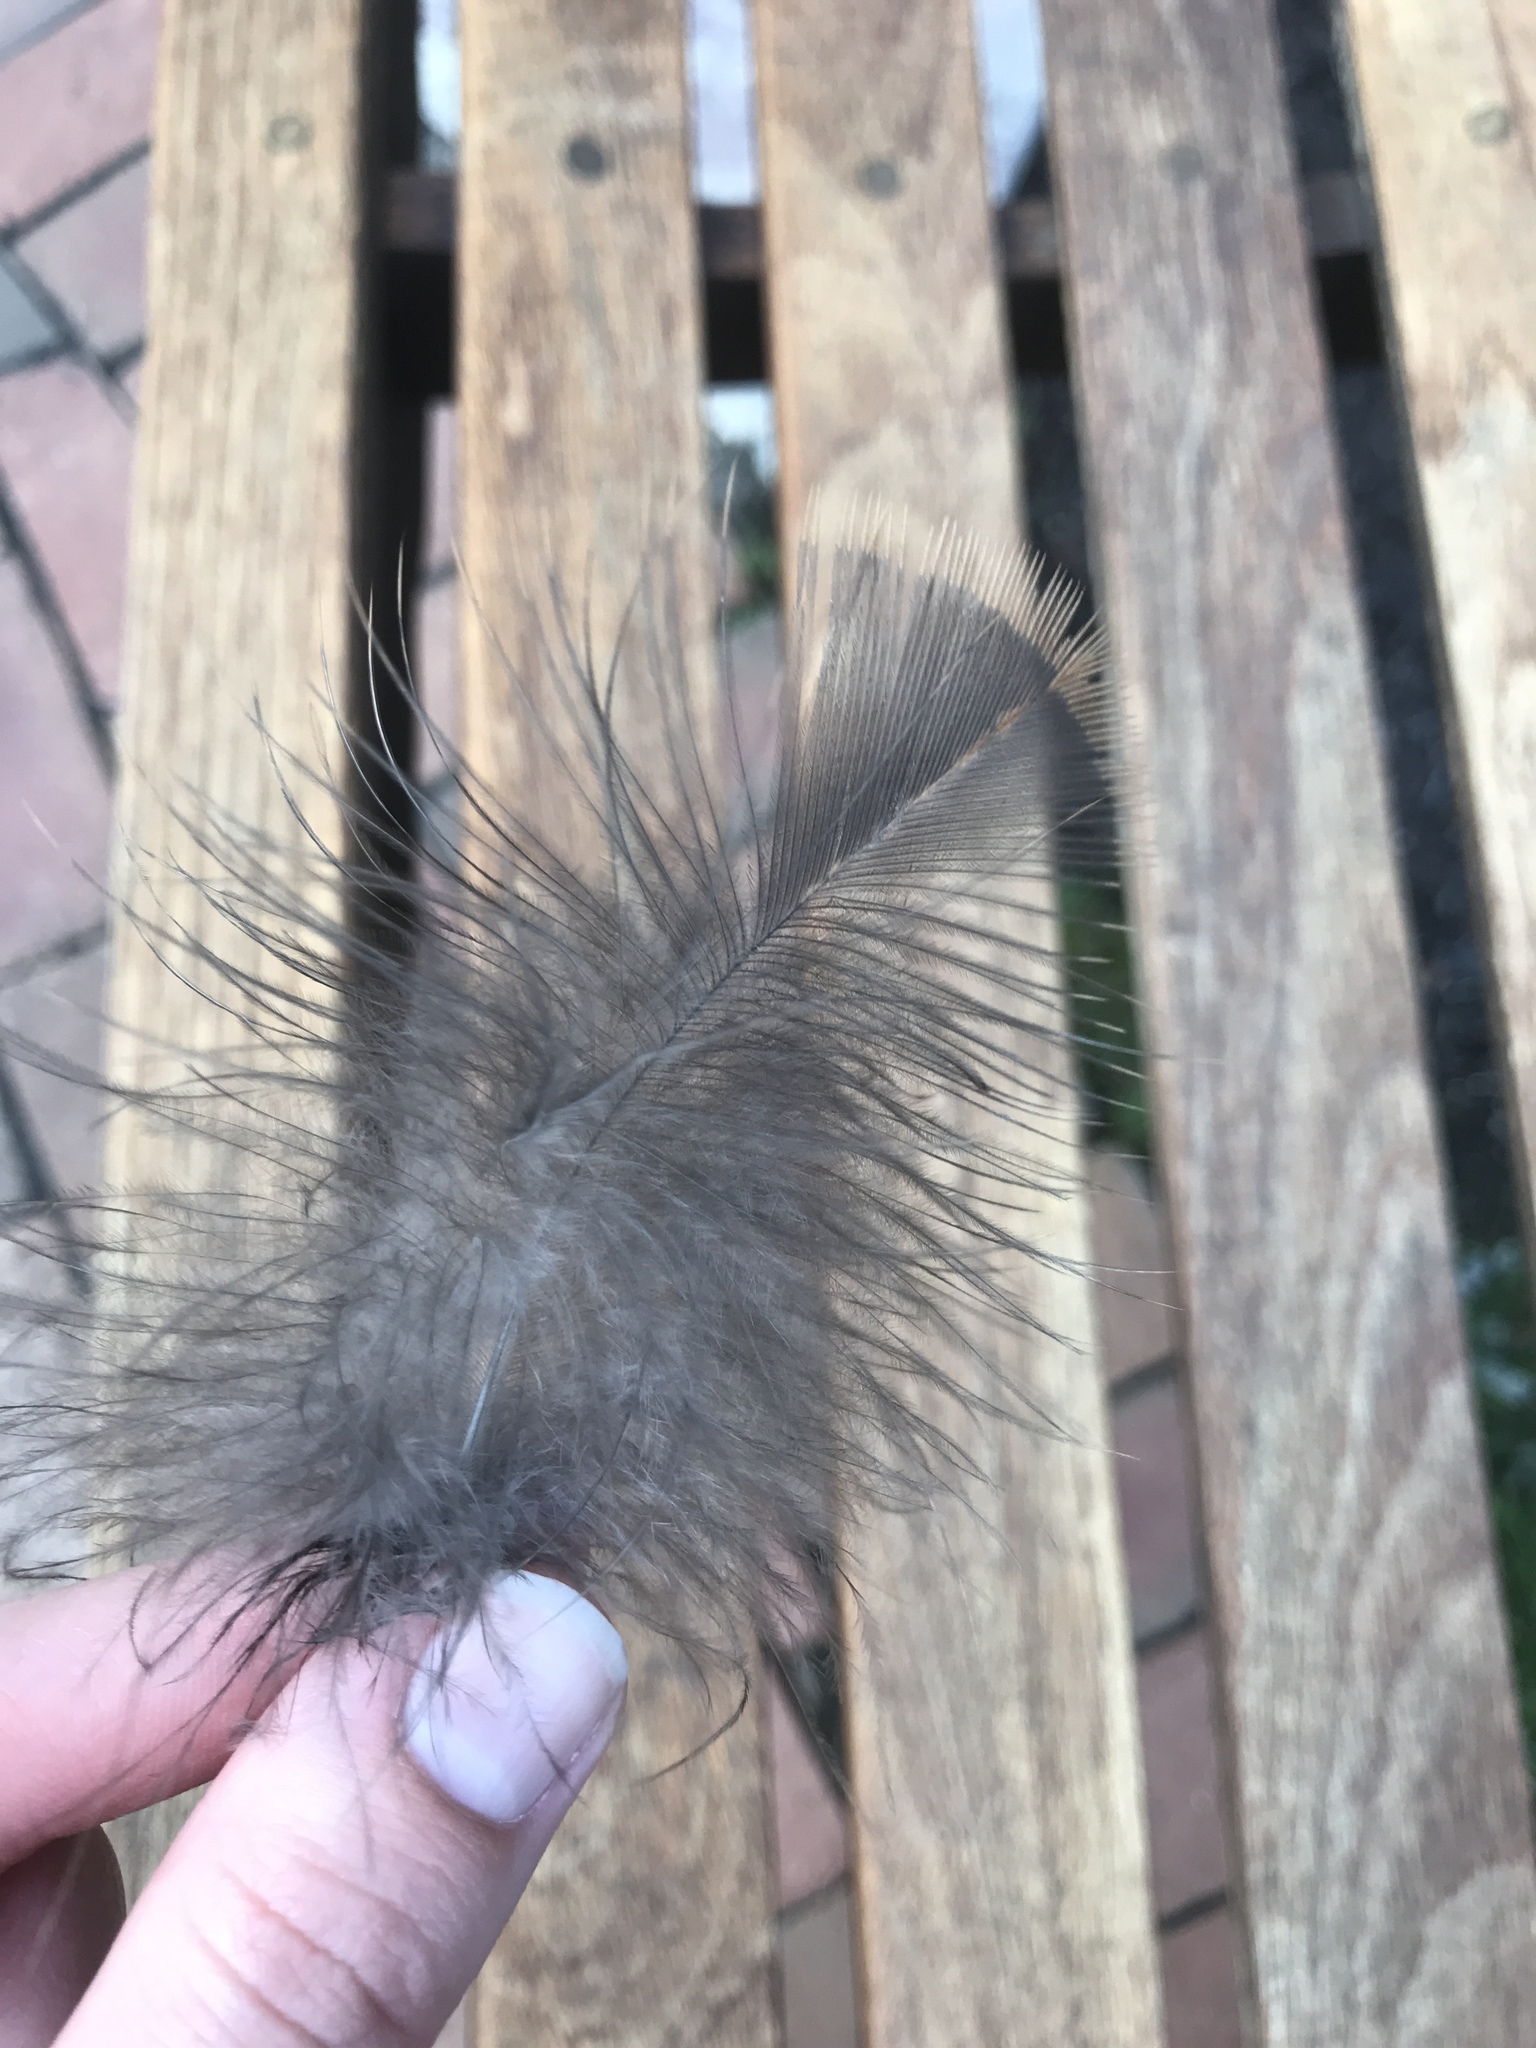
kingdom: Animalia
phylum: Chordata
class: Aves
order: Galliformes
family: Phasianidae
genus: Meleagris
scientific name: Meleagris gallopavo
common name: Wild turkey
